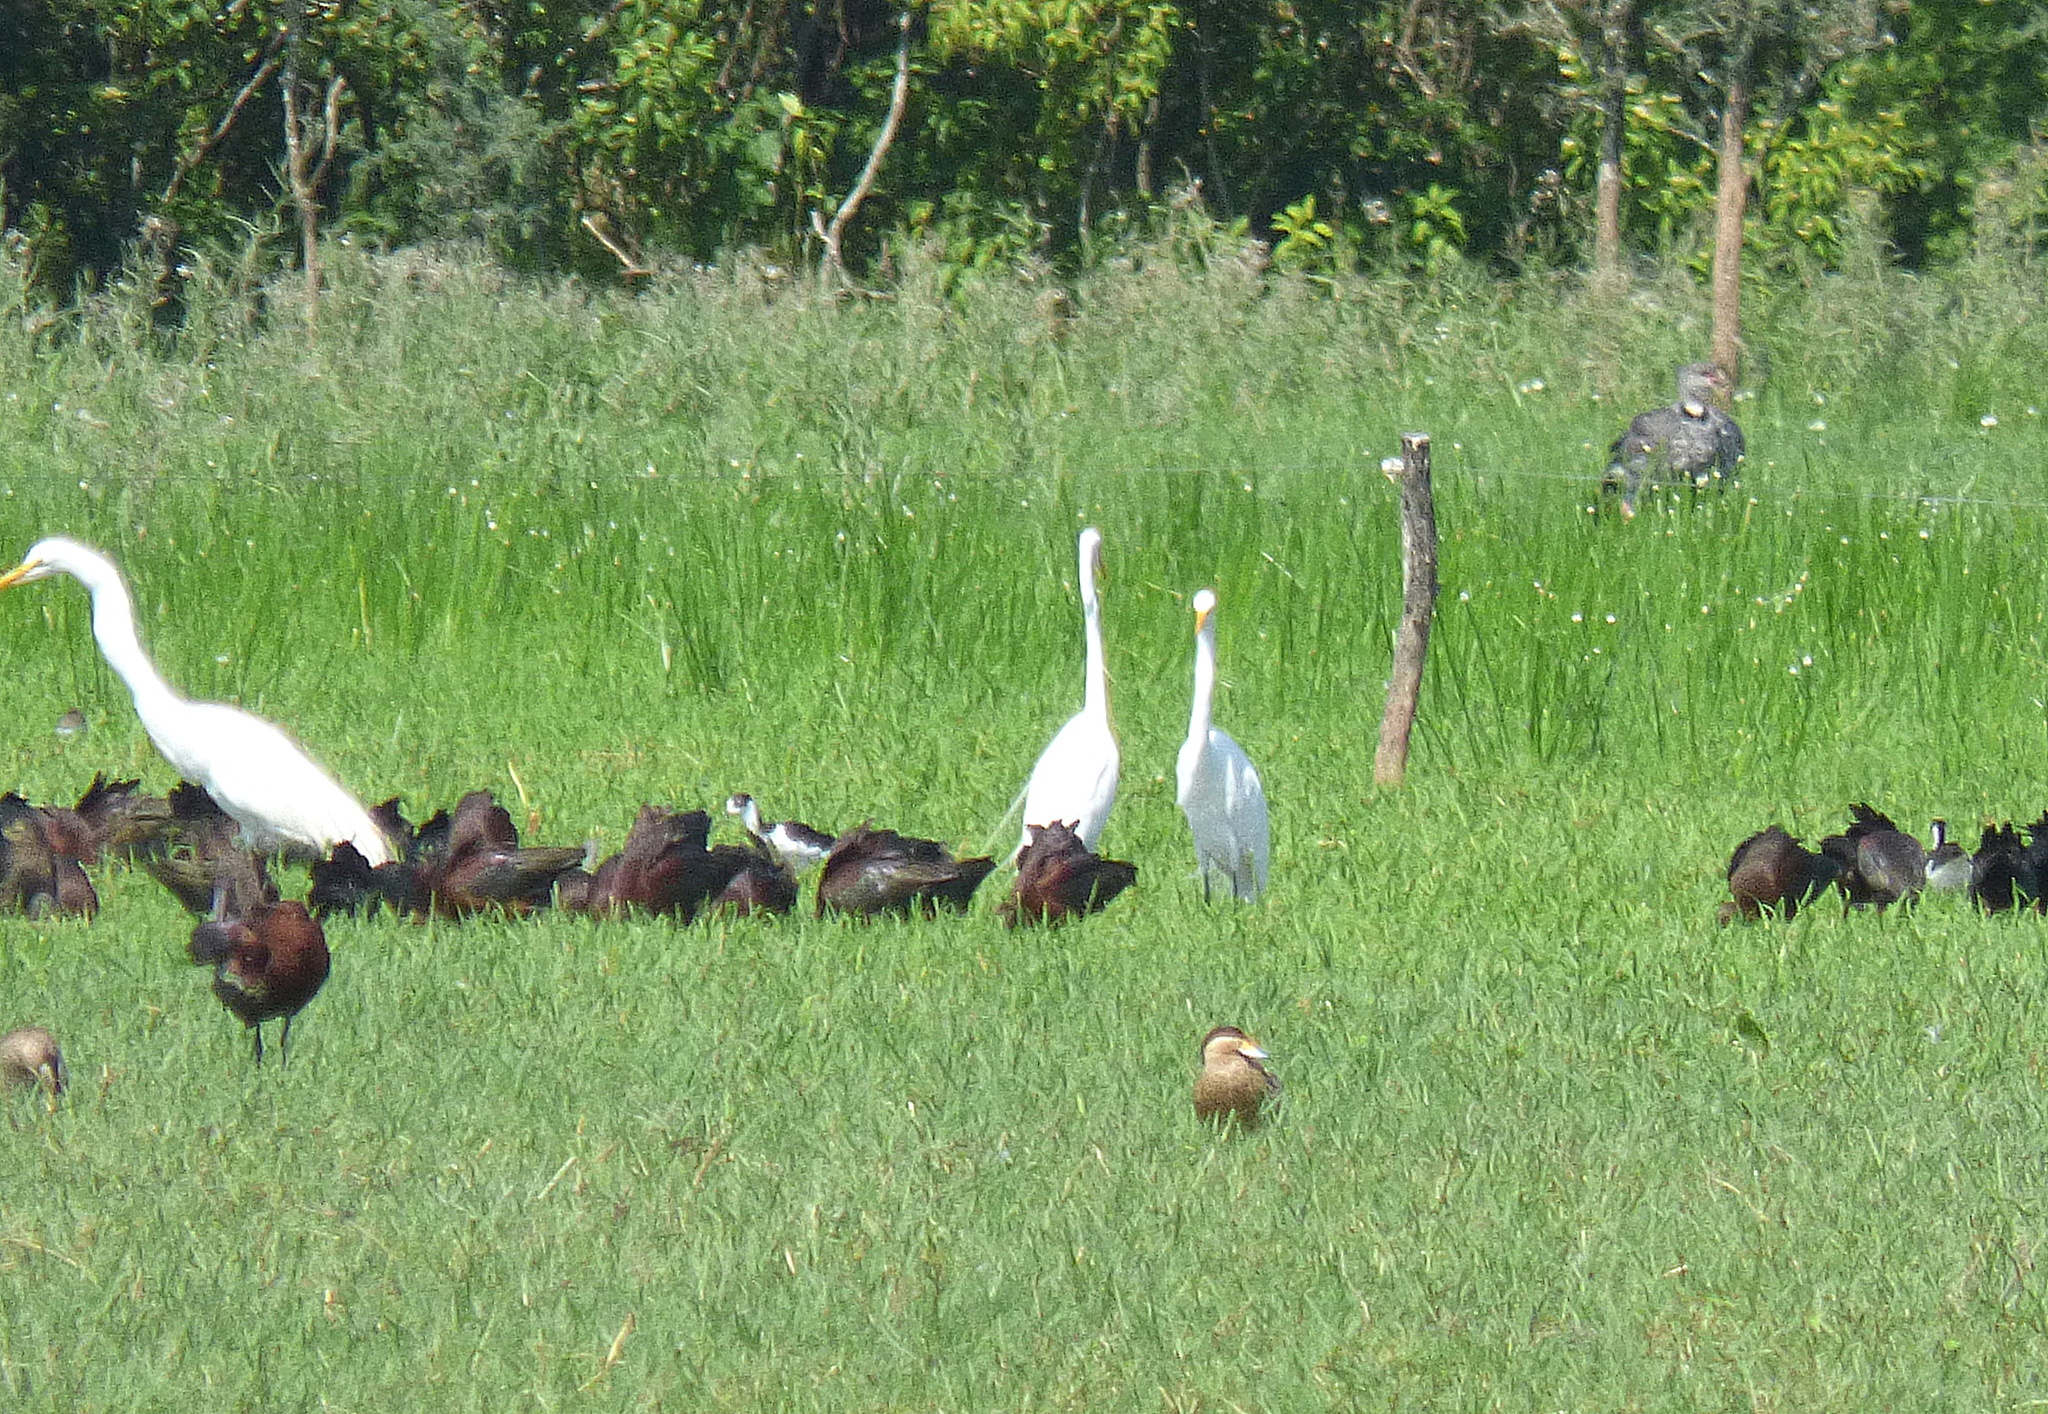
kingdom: Animalia
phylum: Chordata
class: Aves
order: Anseriformes
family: Anatidae
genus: Spatula
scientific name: Spatula versicolor
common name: Silver teal
